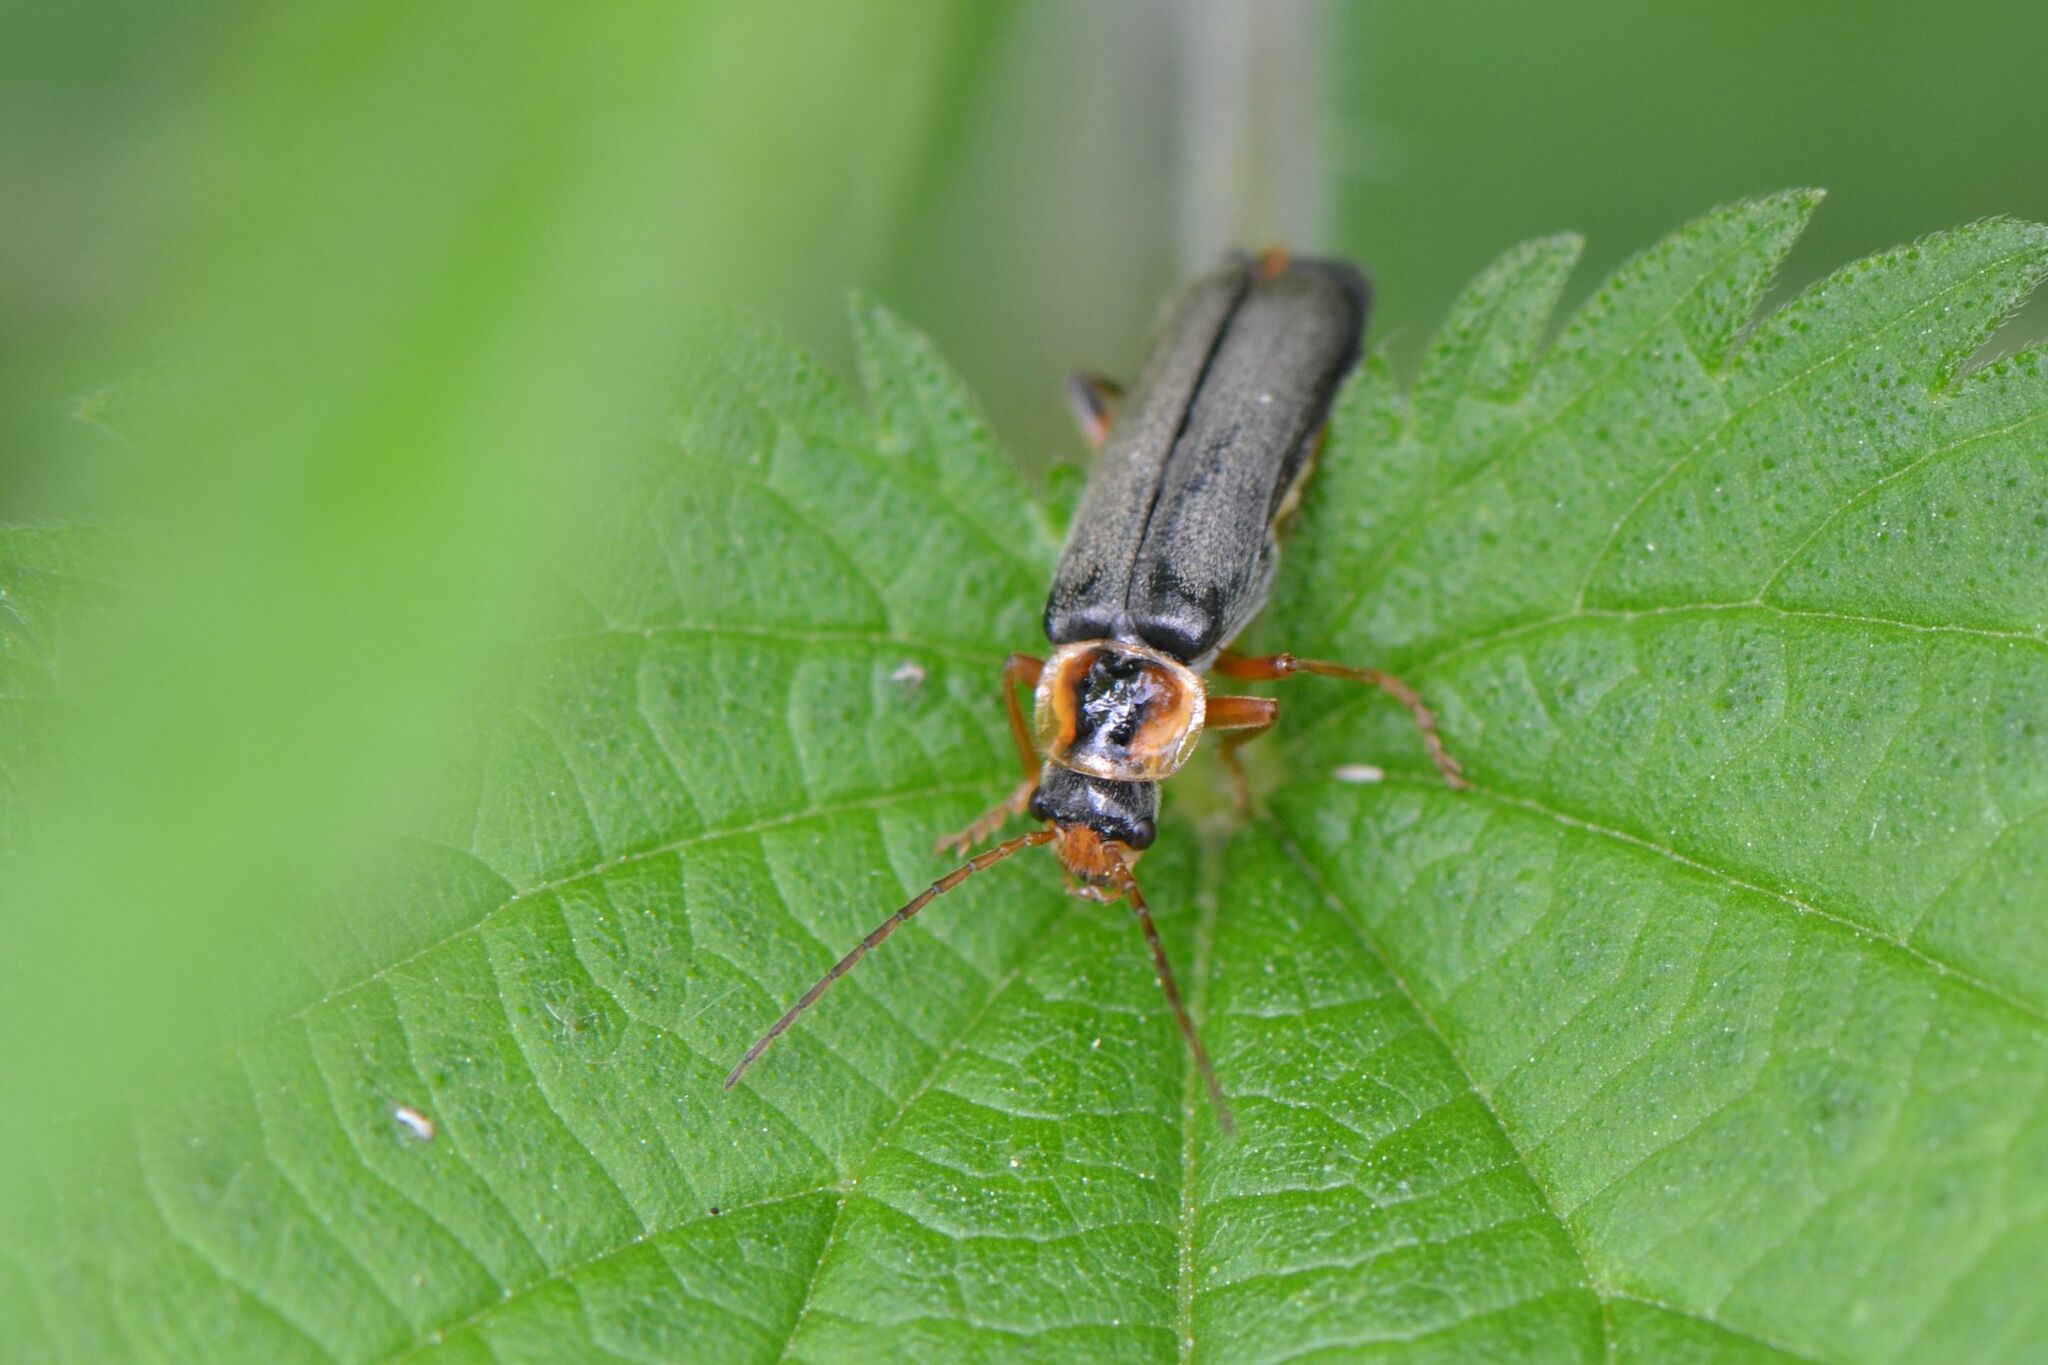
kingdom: Animalia
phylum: Arthropoda
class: Insecta
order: Coleoptera
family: Cantharidae
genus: Cantharis
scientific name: Cantharis nigricans
